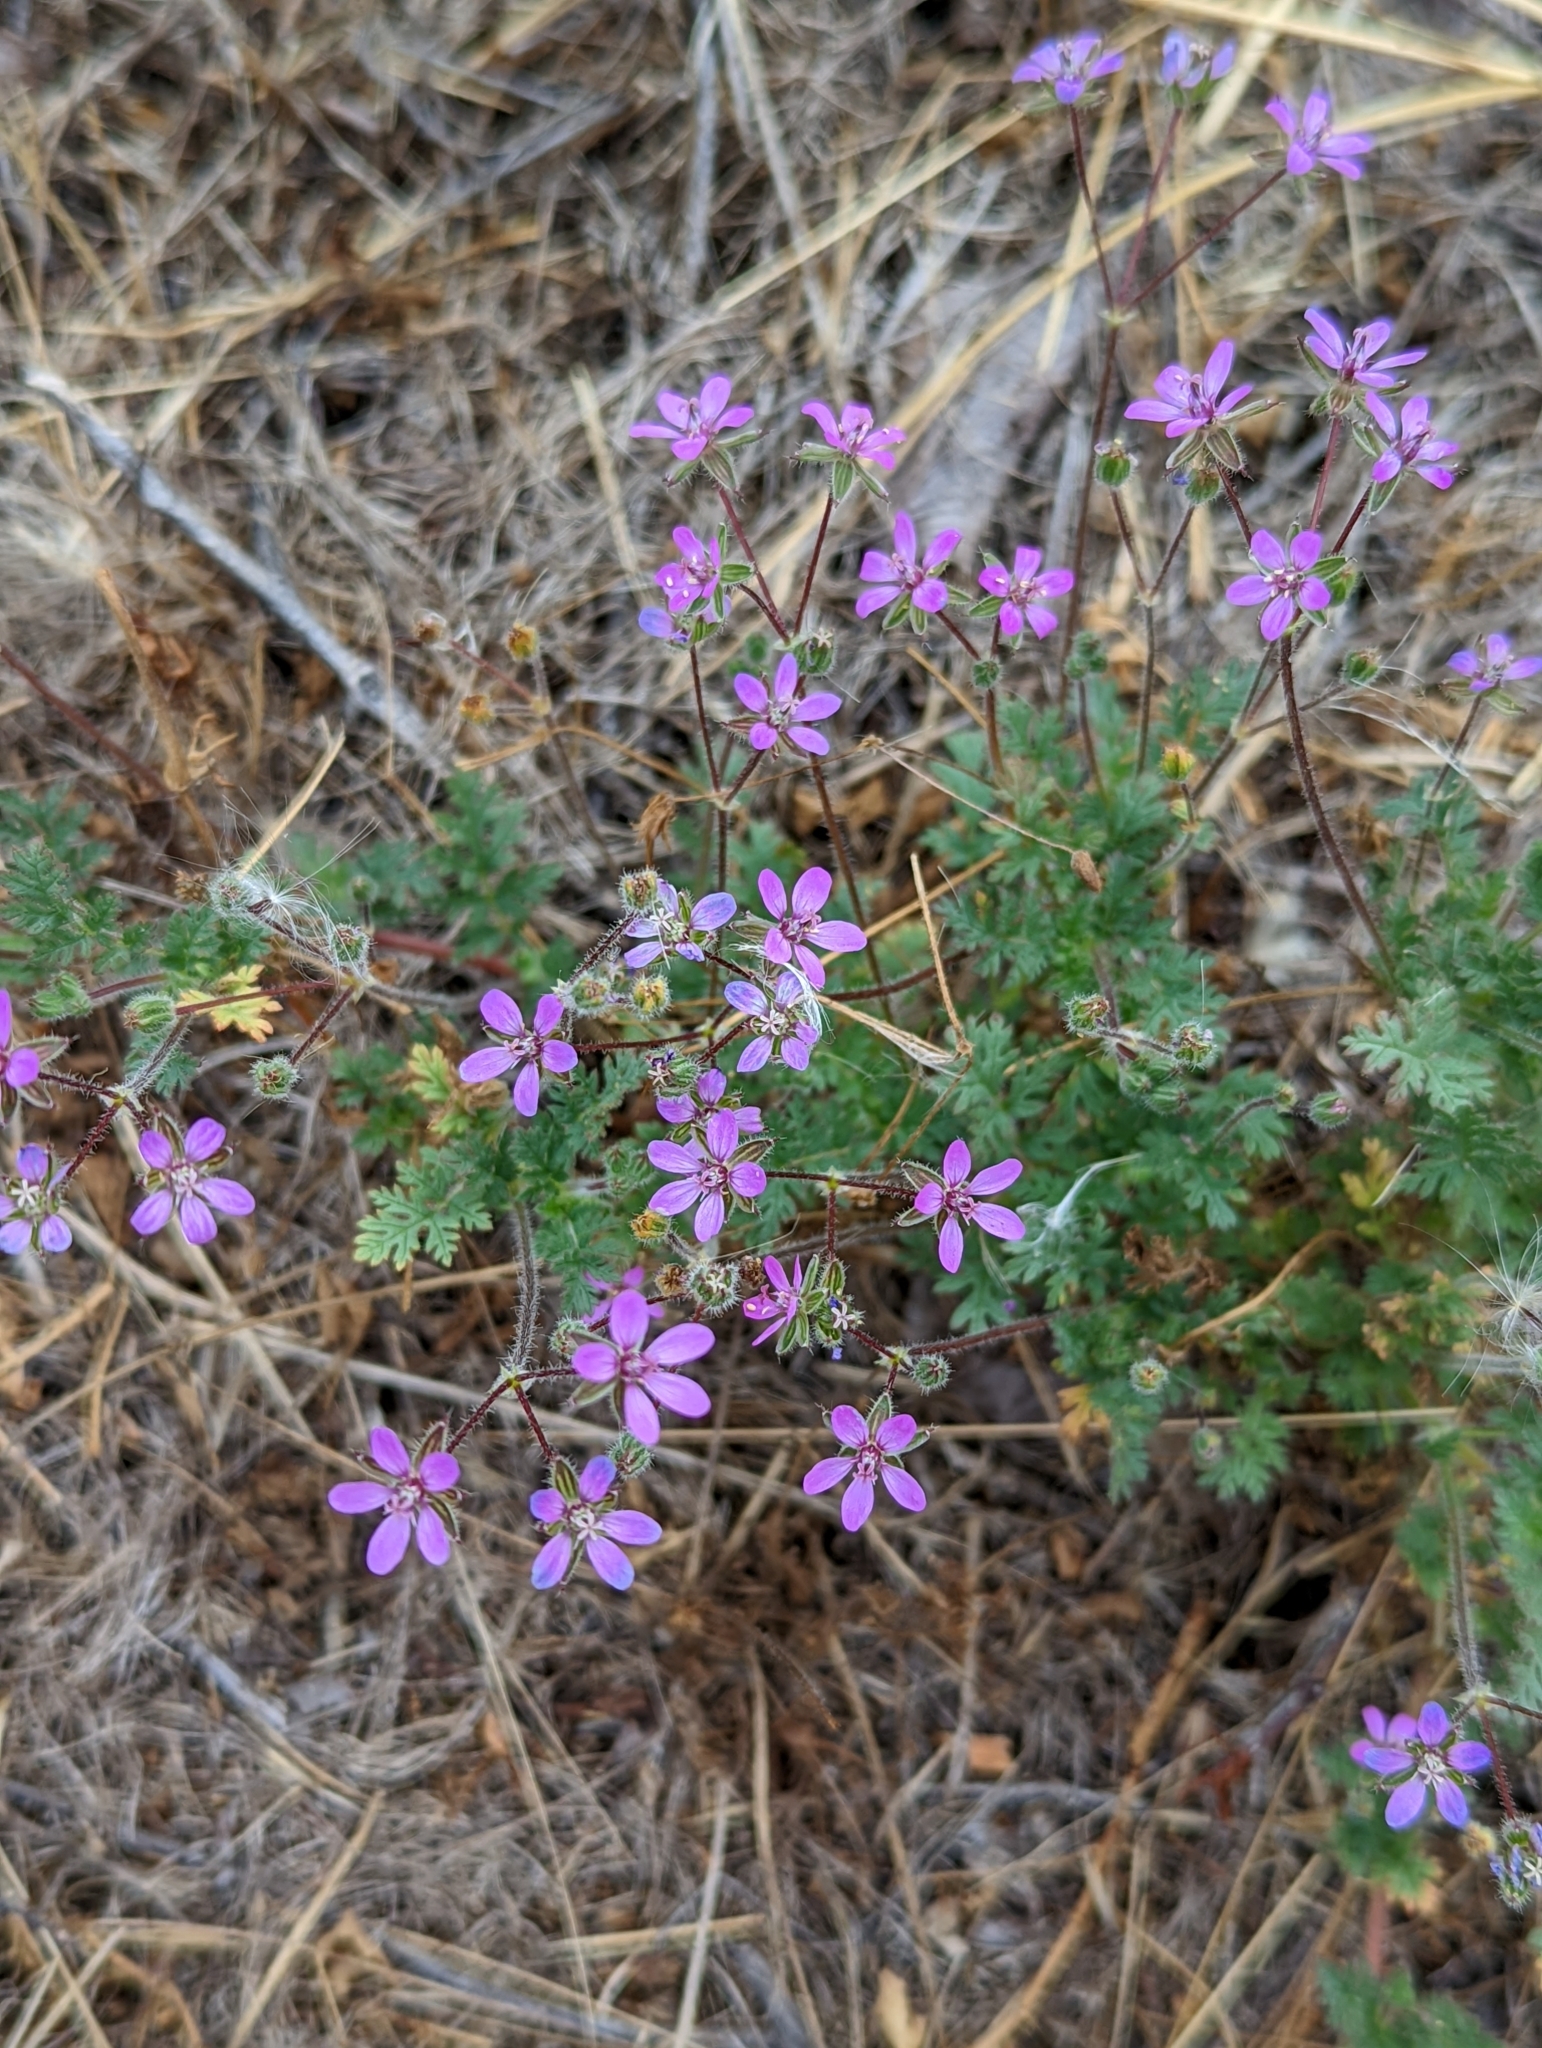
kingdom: Plantae
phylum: Tracheophyta
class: Magnoliopsida
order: Geraniales
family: Geraniaceae
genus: Erodium
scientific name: Erodium cicutarium
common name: Common stork's-bill
